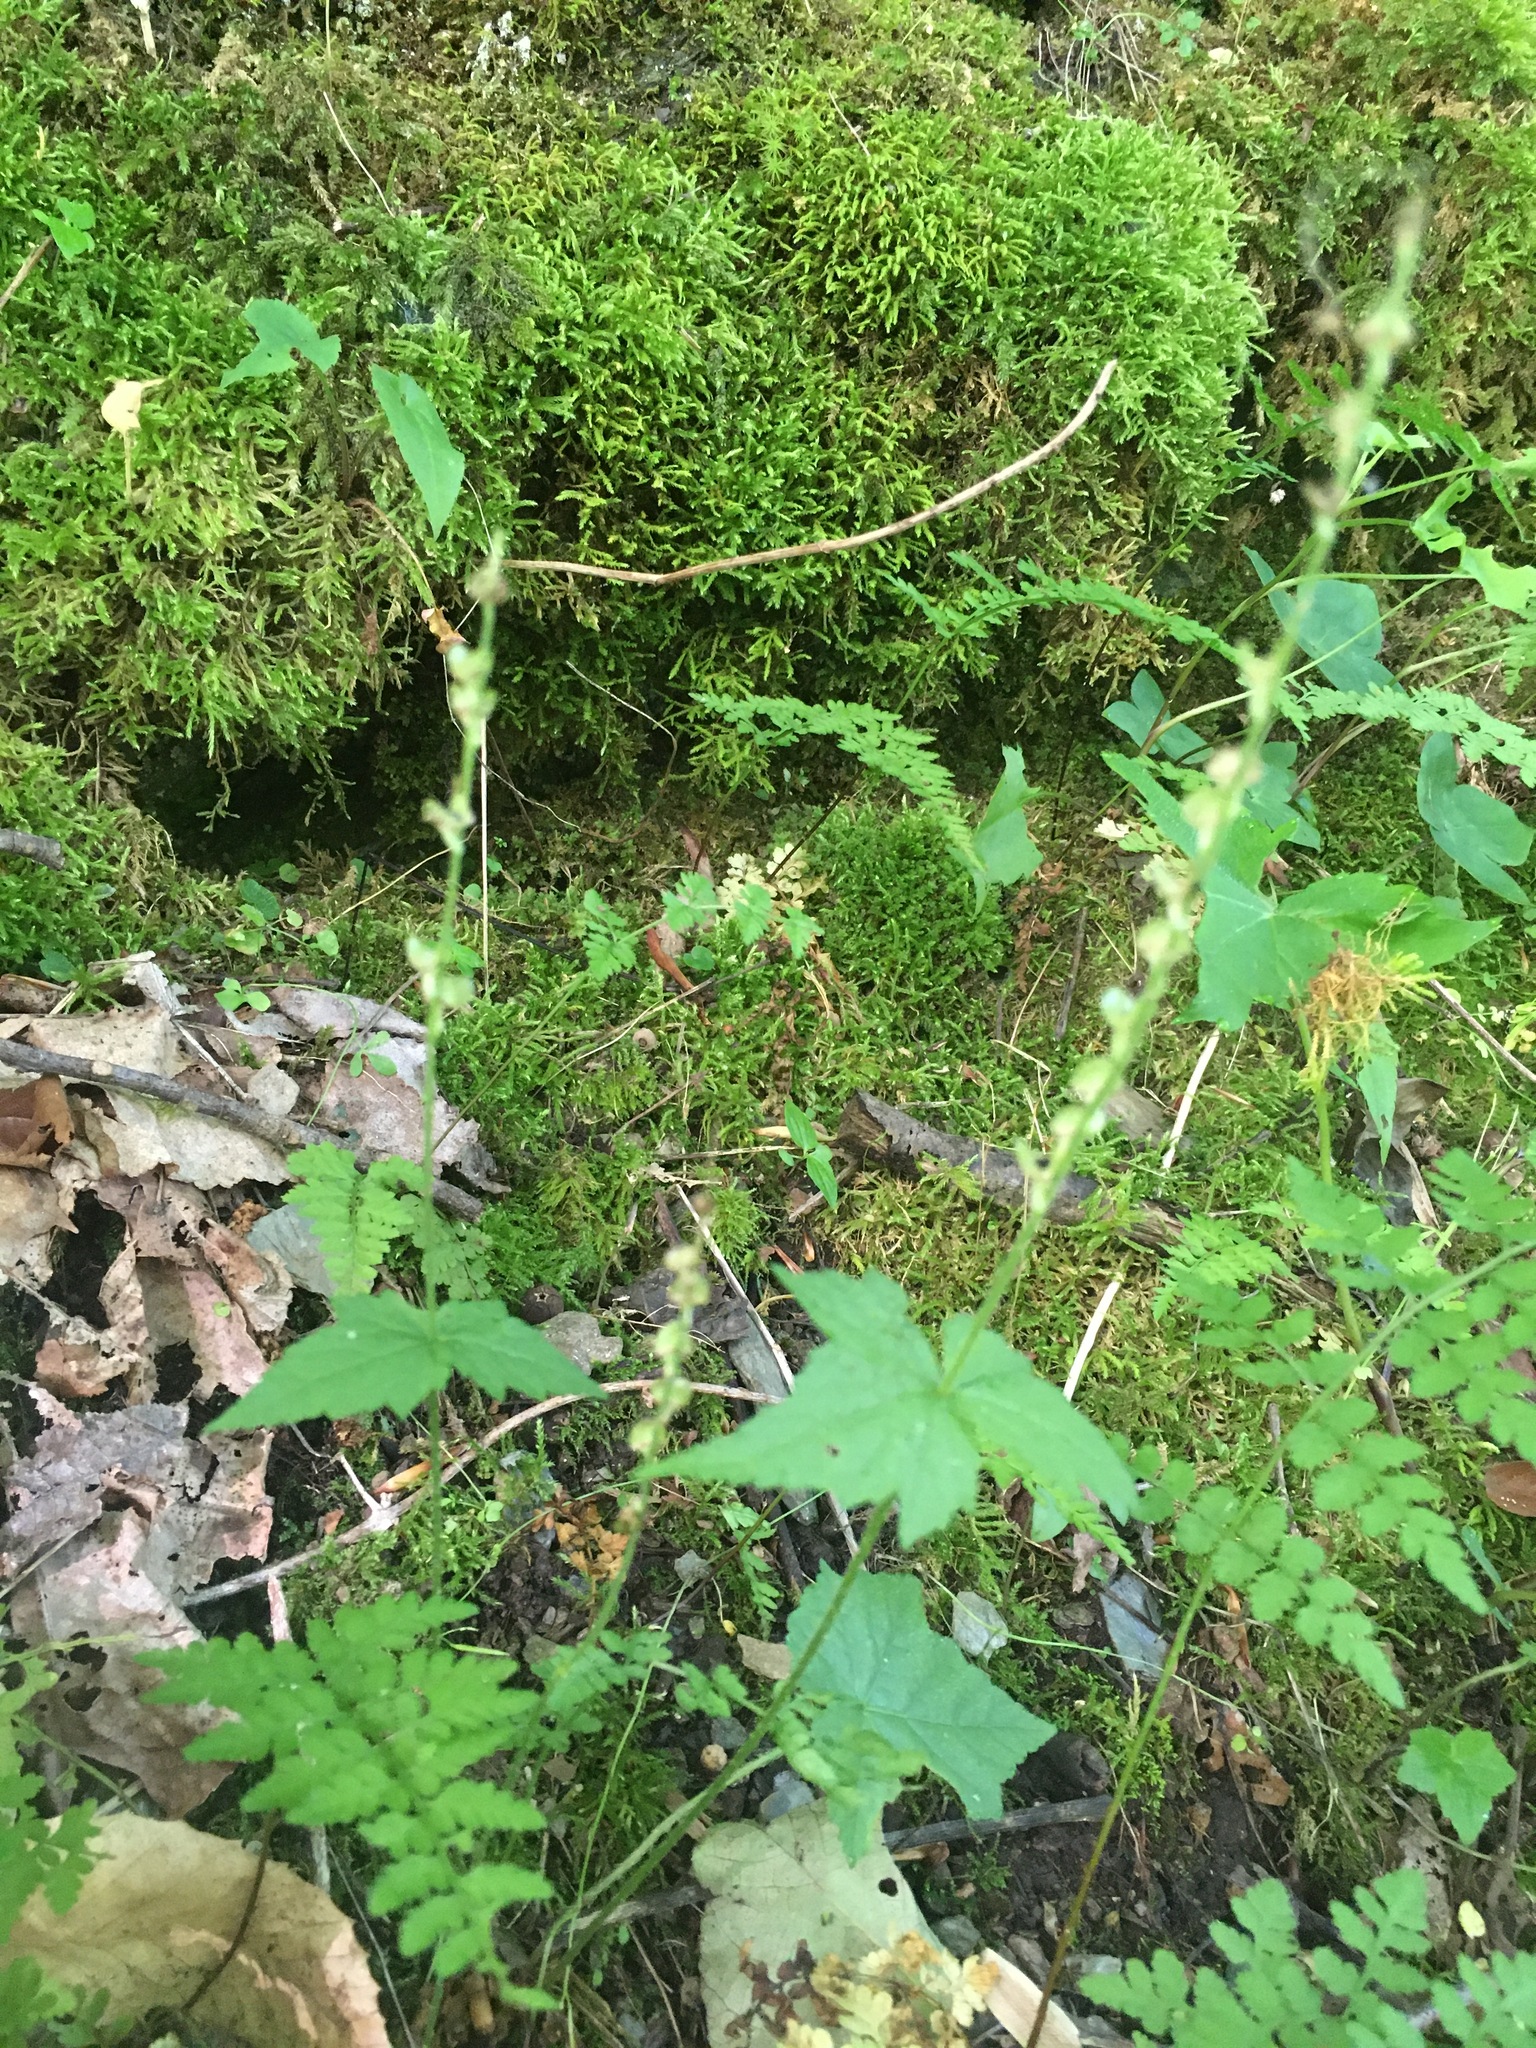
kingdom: Plantae
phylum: Tracheophyta
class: Magnoliopsida
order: Saxifragales
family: Saxifragaceae
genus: Mitella
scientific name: Mitella diphylla
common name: Coolwort
